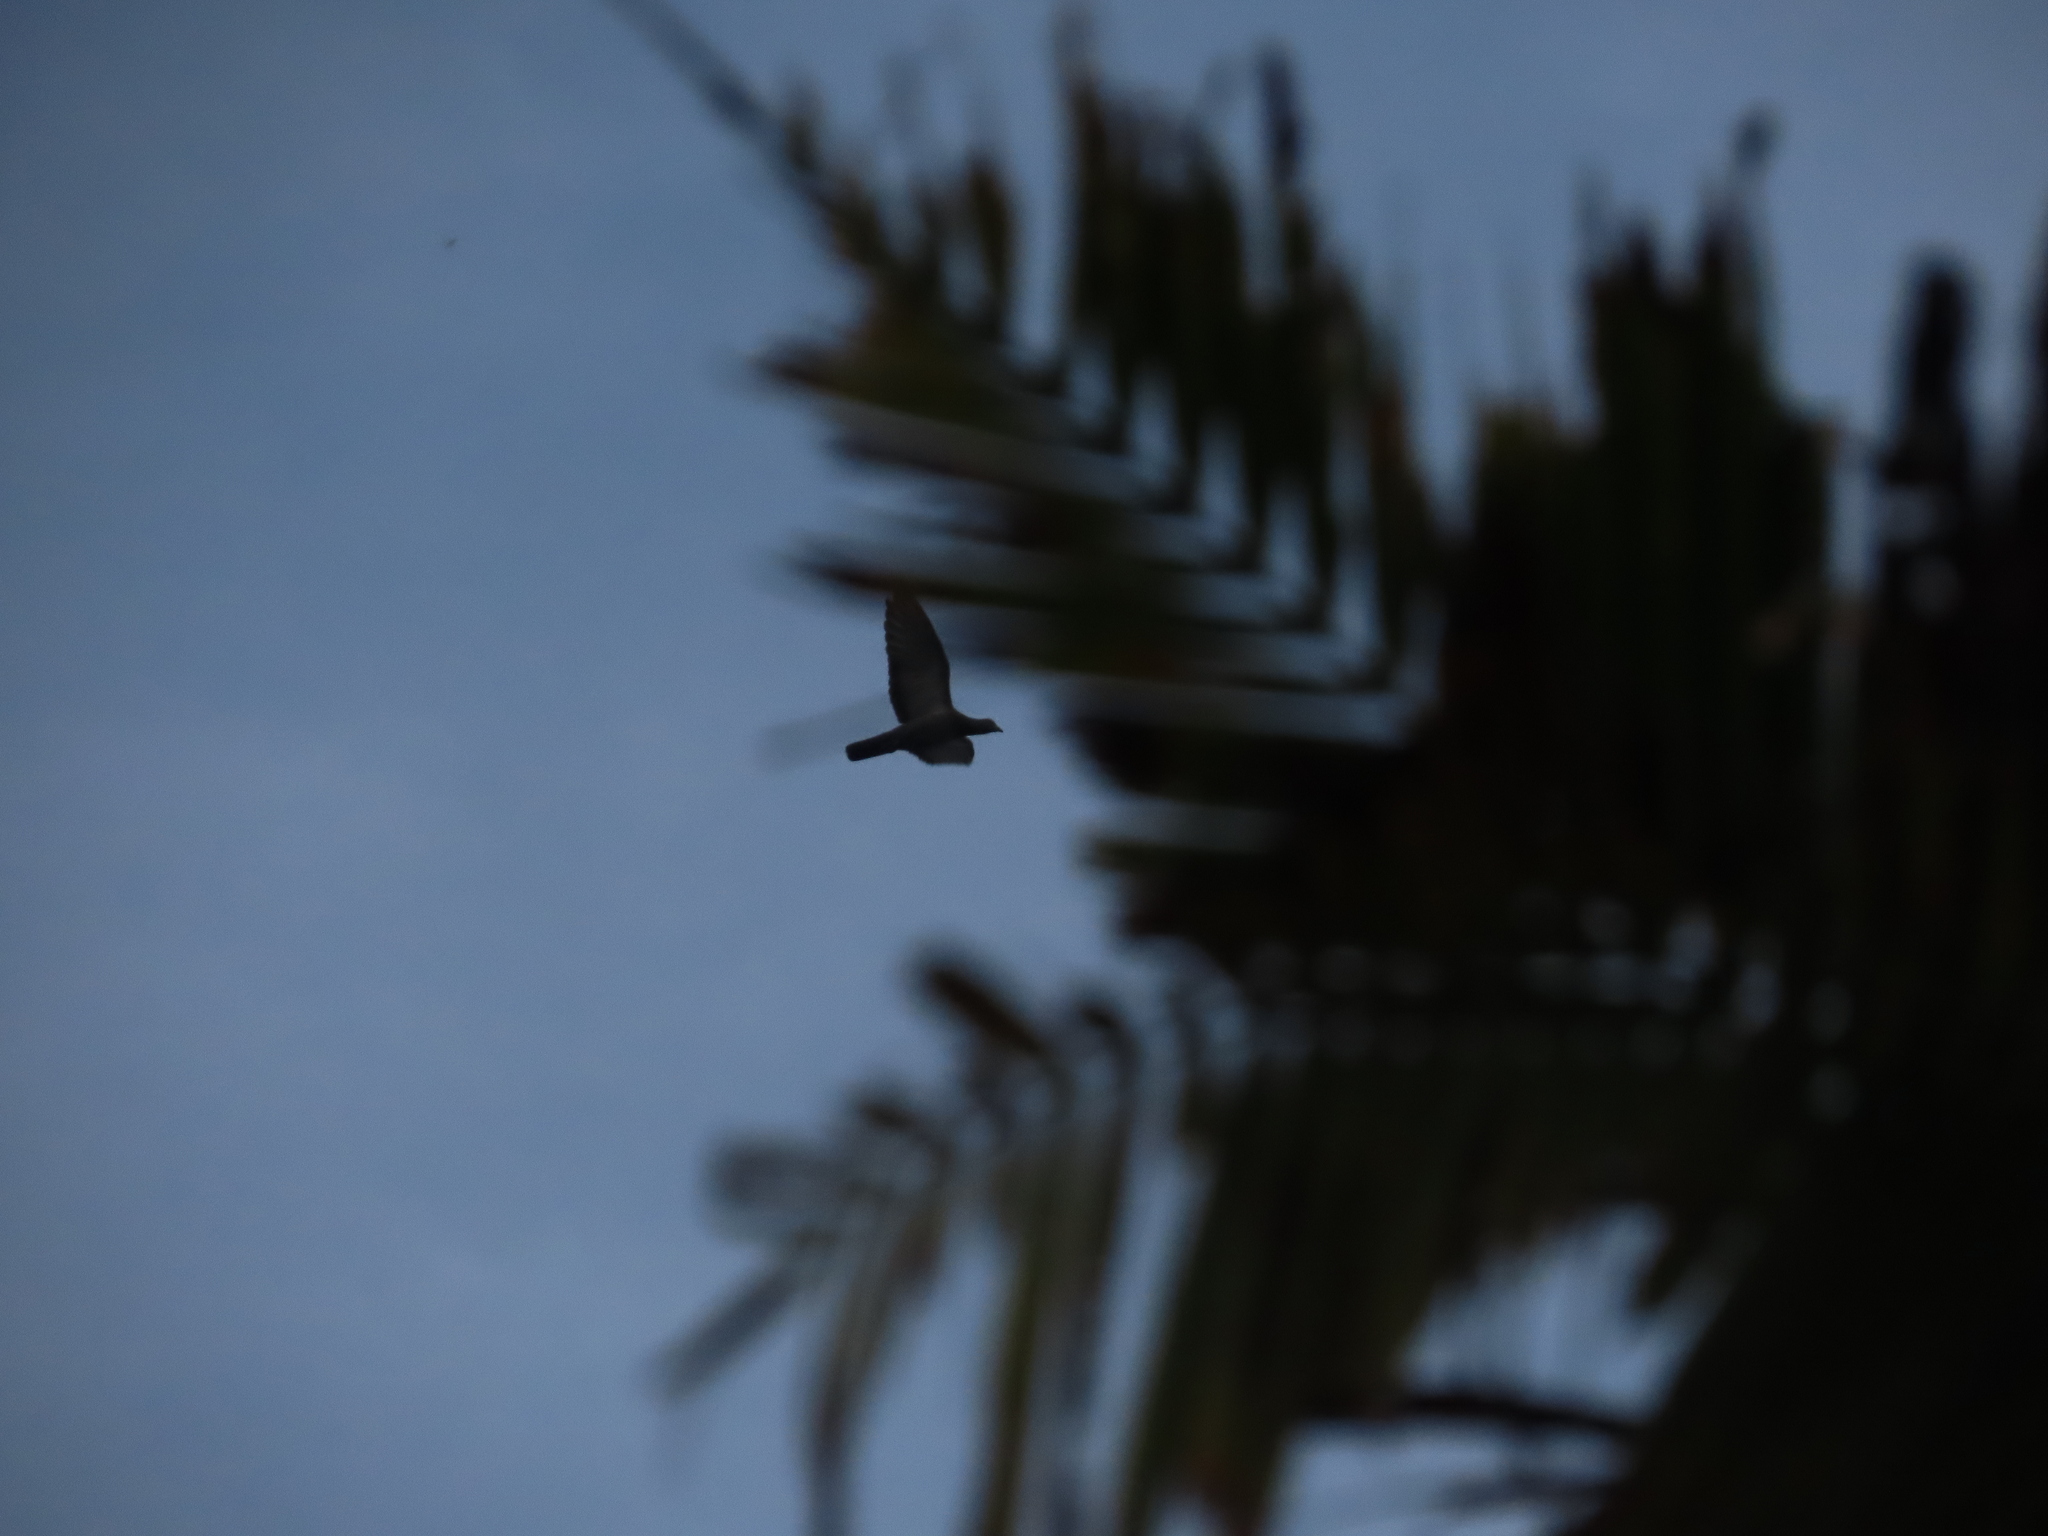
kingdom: Animalia
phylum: Chordata
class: Aves
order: Columbiformes
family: Columbidae
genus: Columba
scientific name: Columba livia
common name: Rock pigeon
